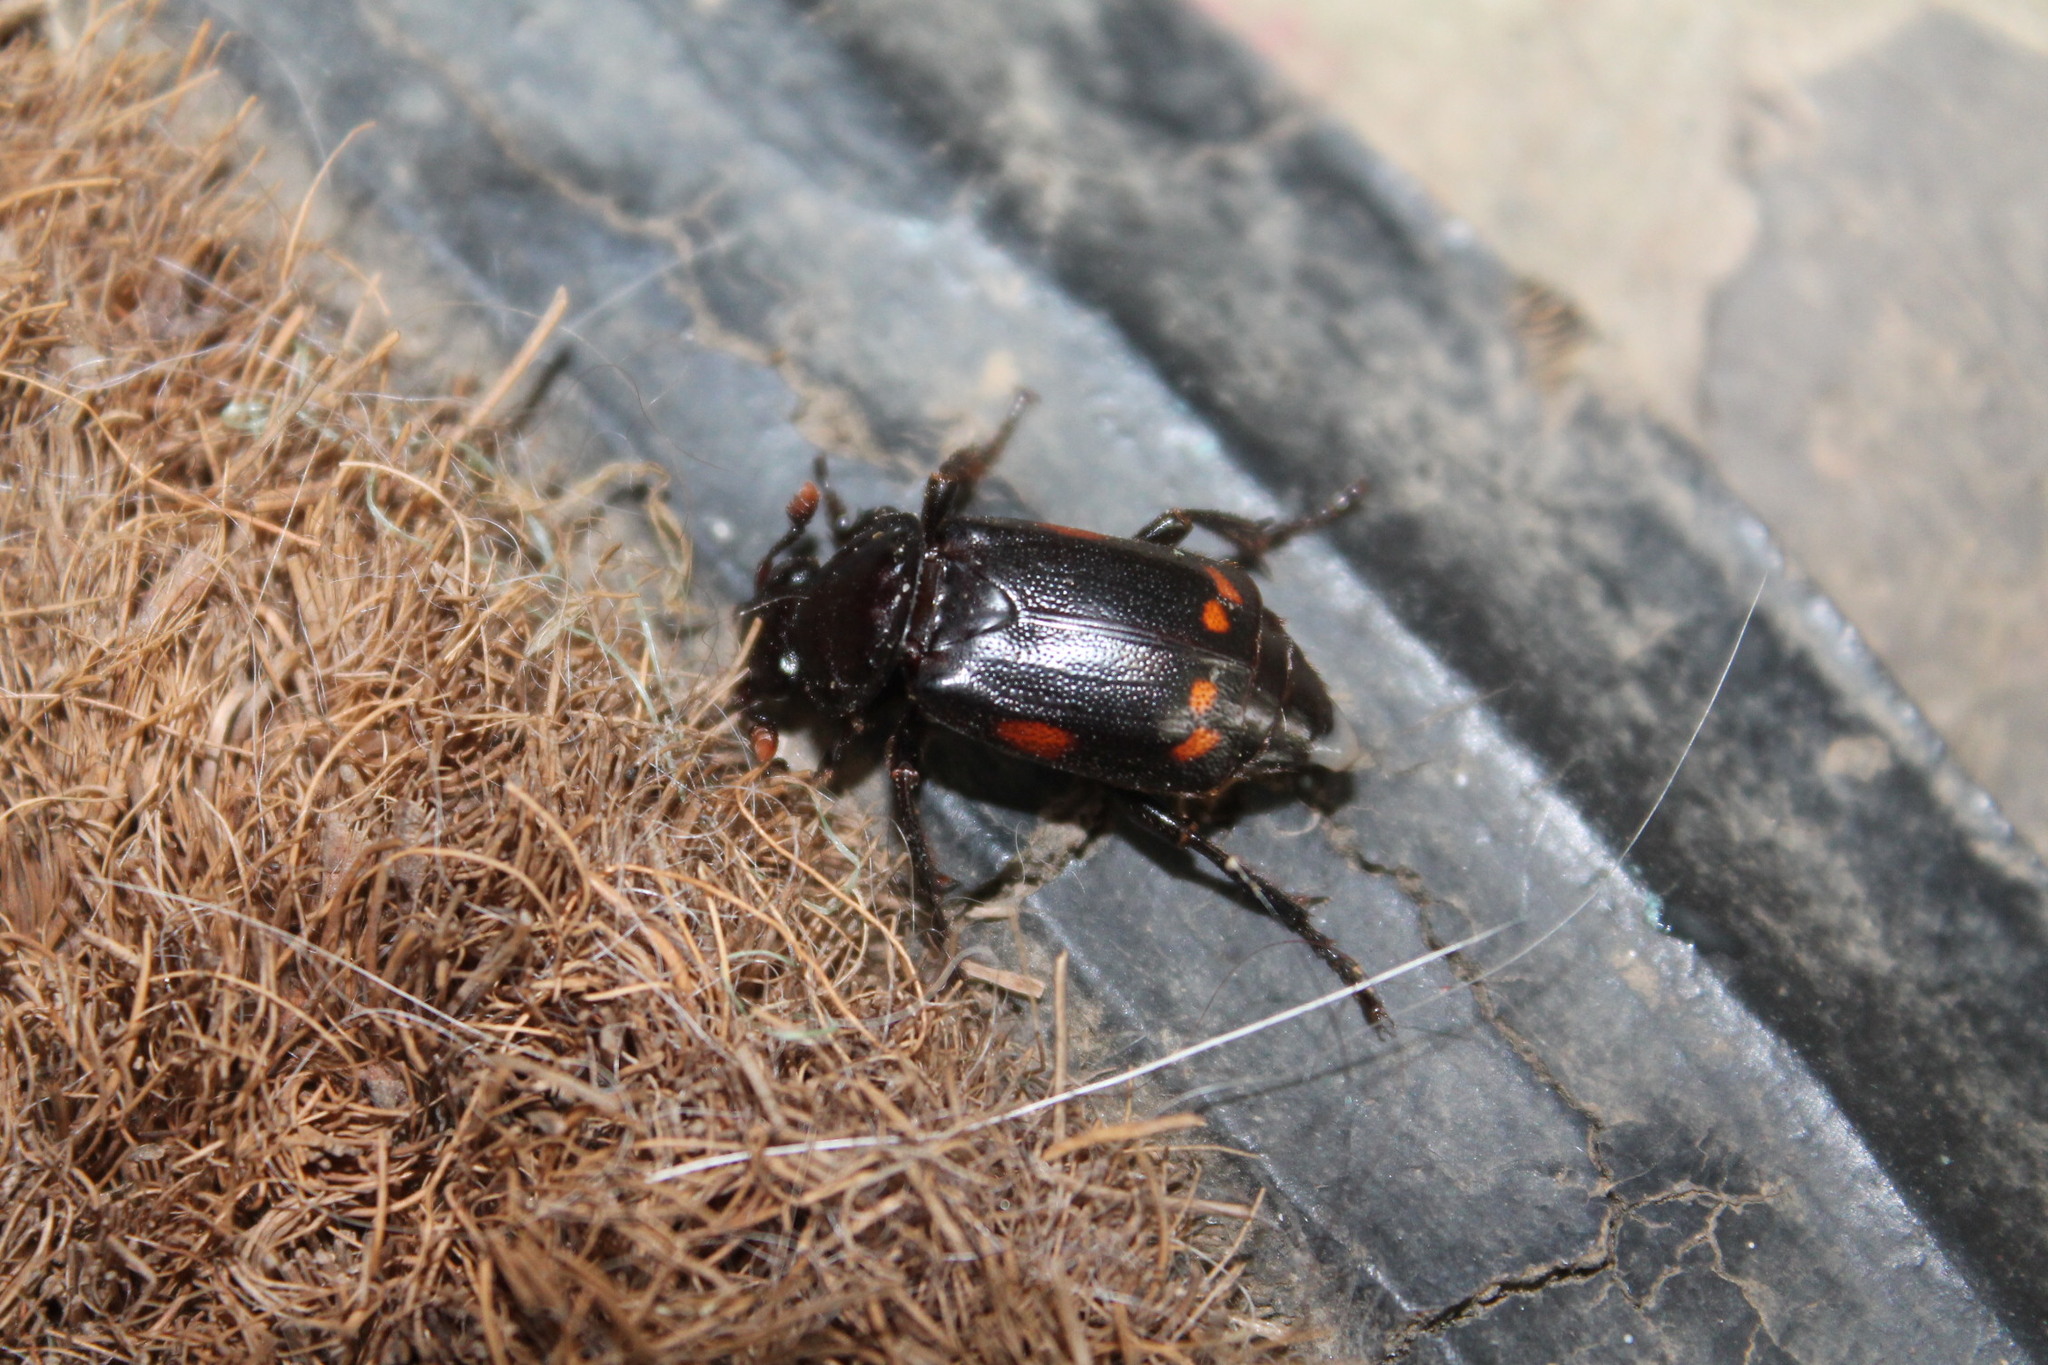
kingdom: Animalia
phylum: Arthropoda
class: Insecta
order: Coleoptera
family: Staphylinidae
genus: Nicrophorus
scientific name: Nicrophorus pustulatus
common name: Pustulated carrion beetle
